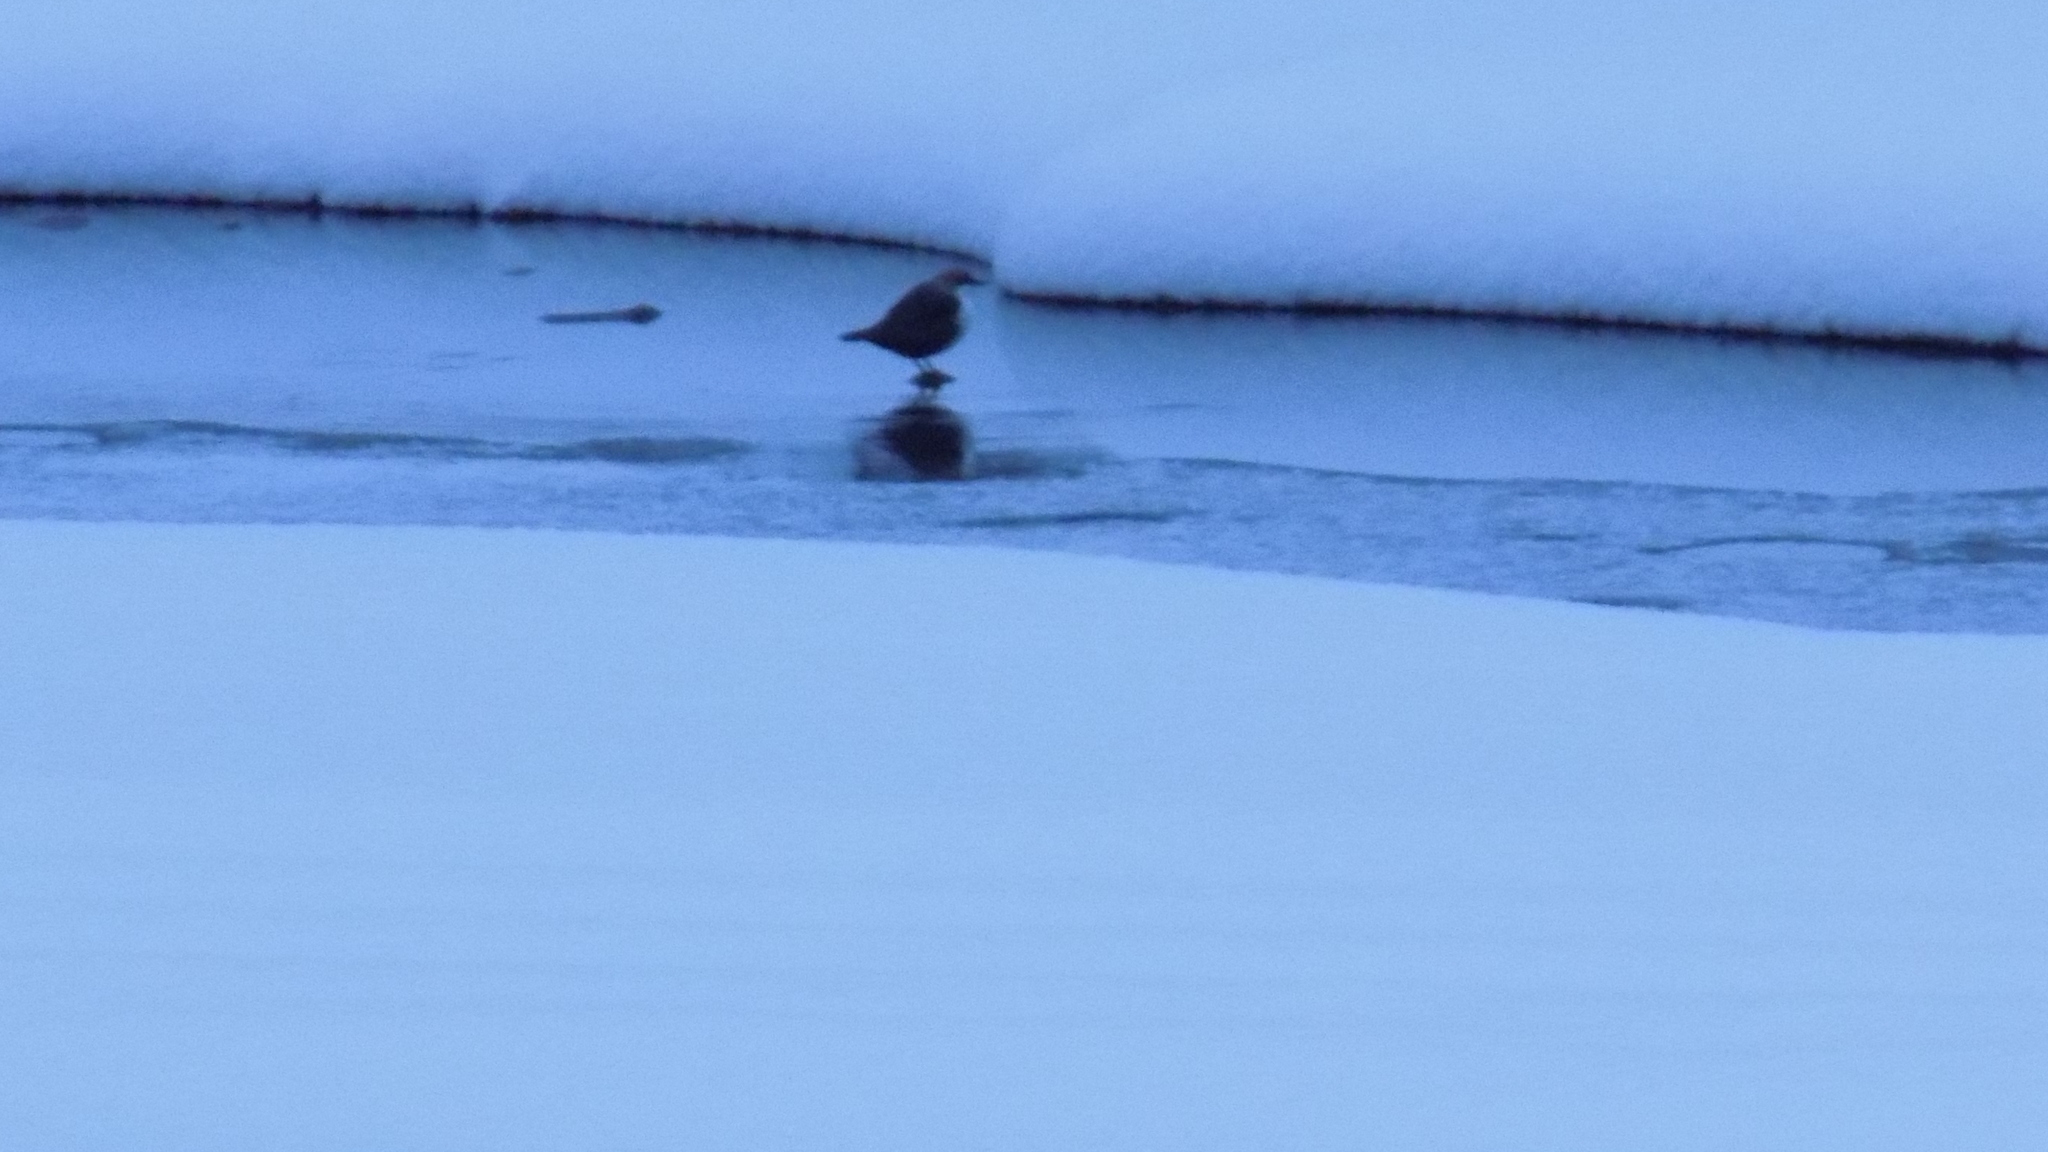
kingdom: Animalia
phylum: Chordata
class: Aves
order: Passeriformes
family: Cinclidae
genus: Cinclus
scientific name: Cinclus cinclus
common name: White-throated dipper
